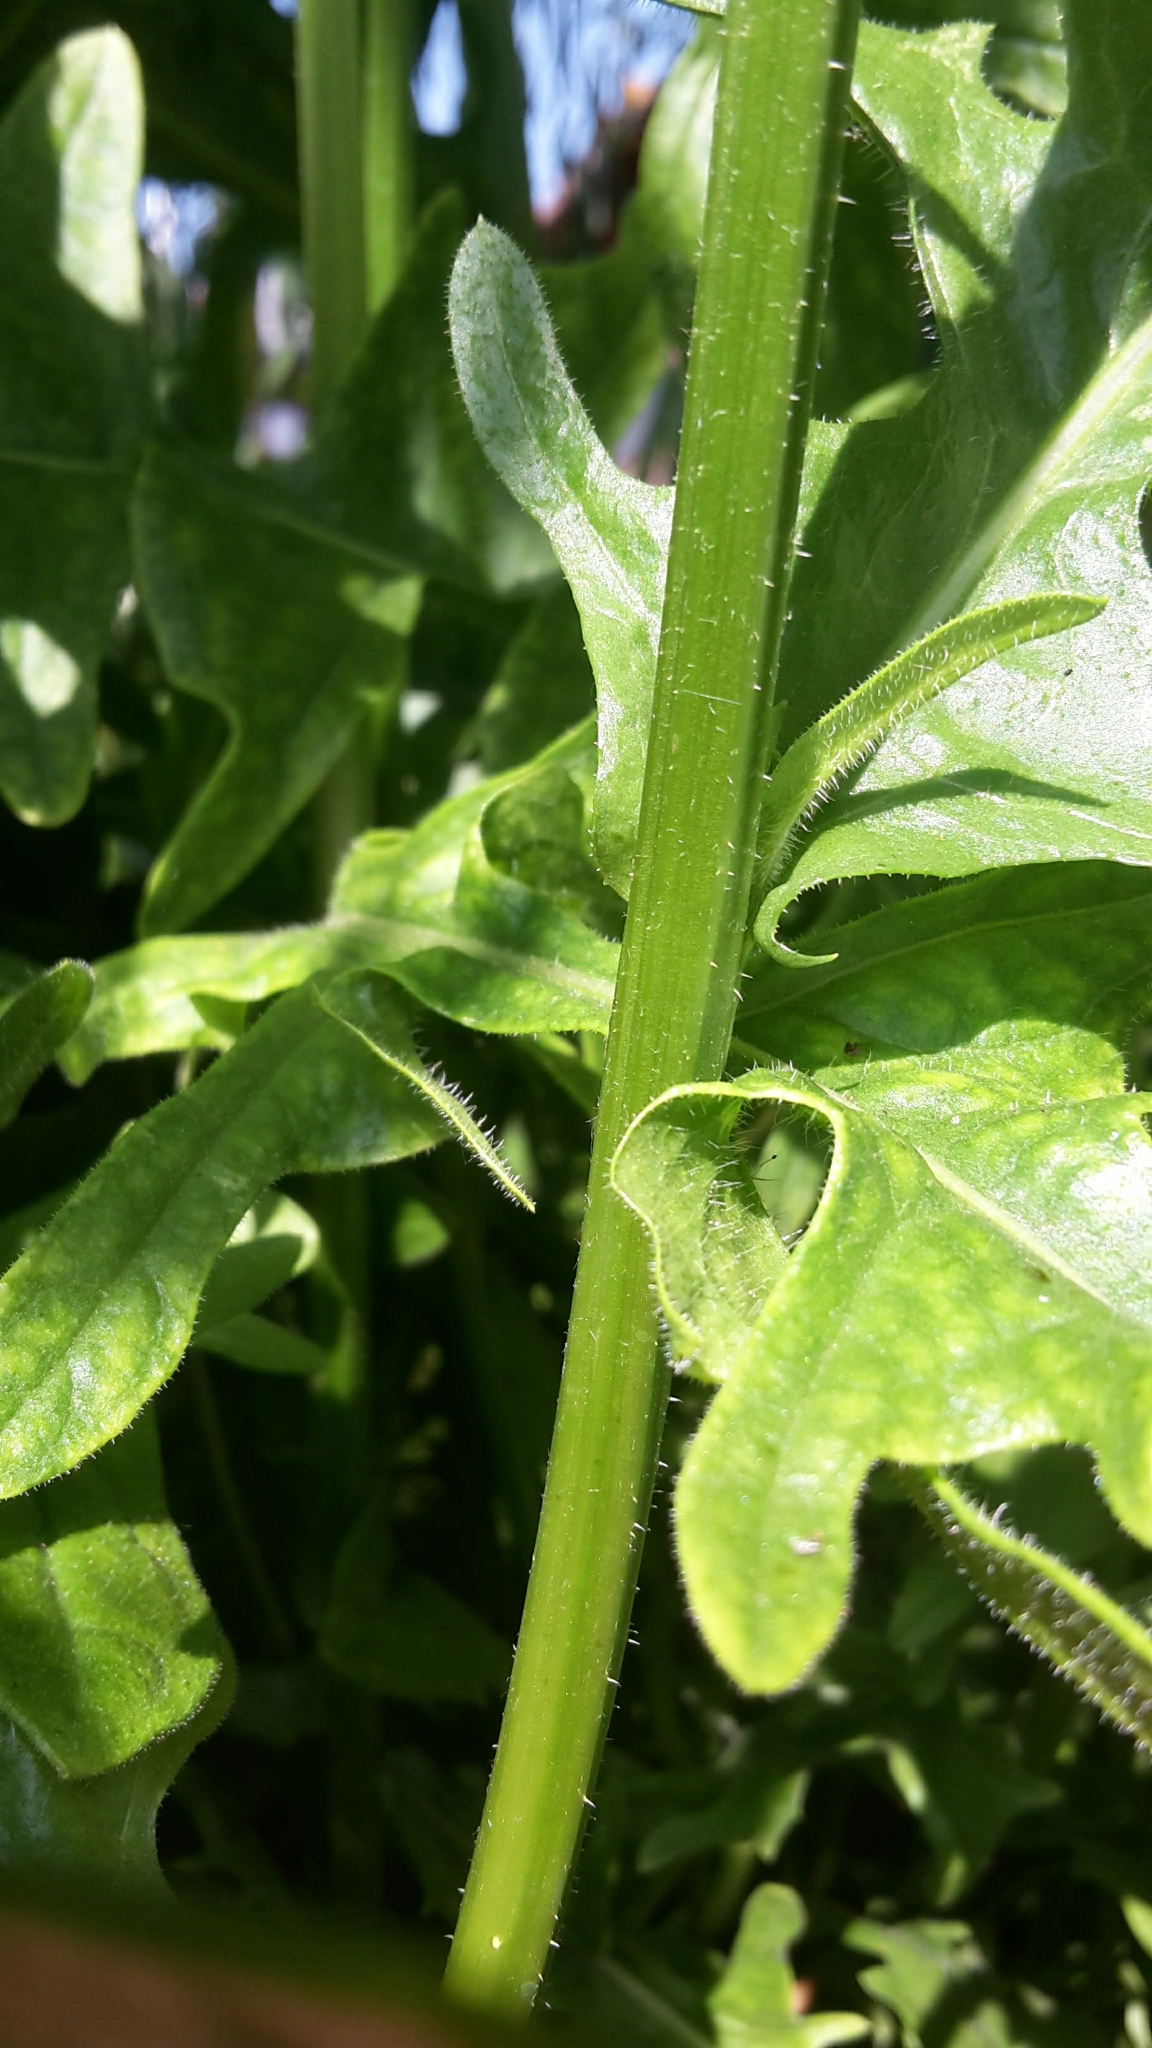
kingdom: Plantae
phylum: Tracheophyta
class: Magnoliopsida
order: Asterales
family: Asteraceae
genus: Crepis
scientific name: Crepis biennis
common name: Rough hawk's-beard
